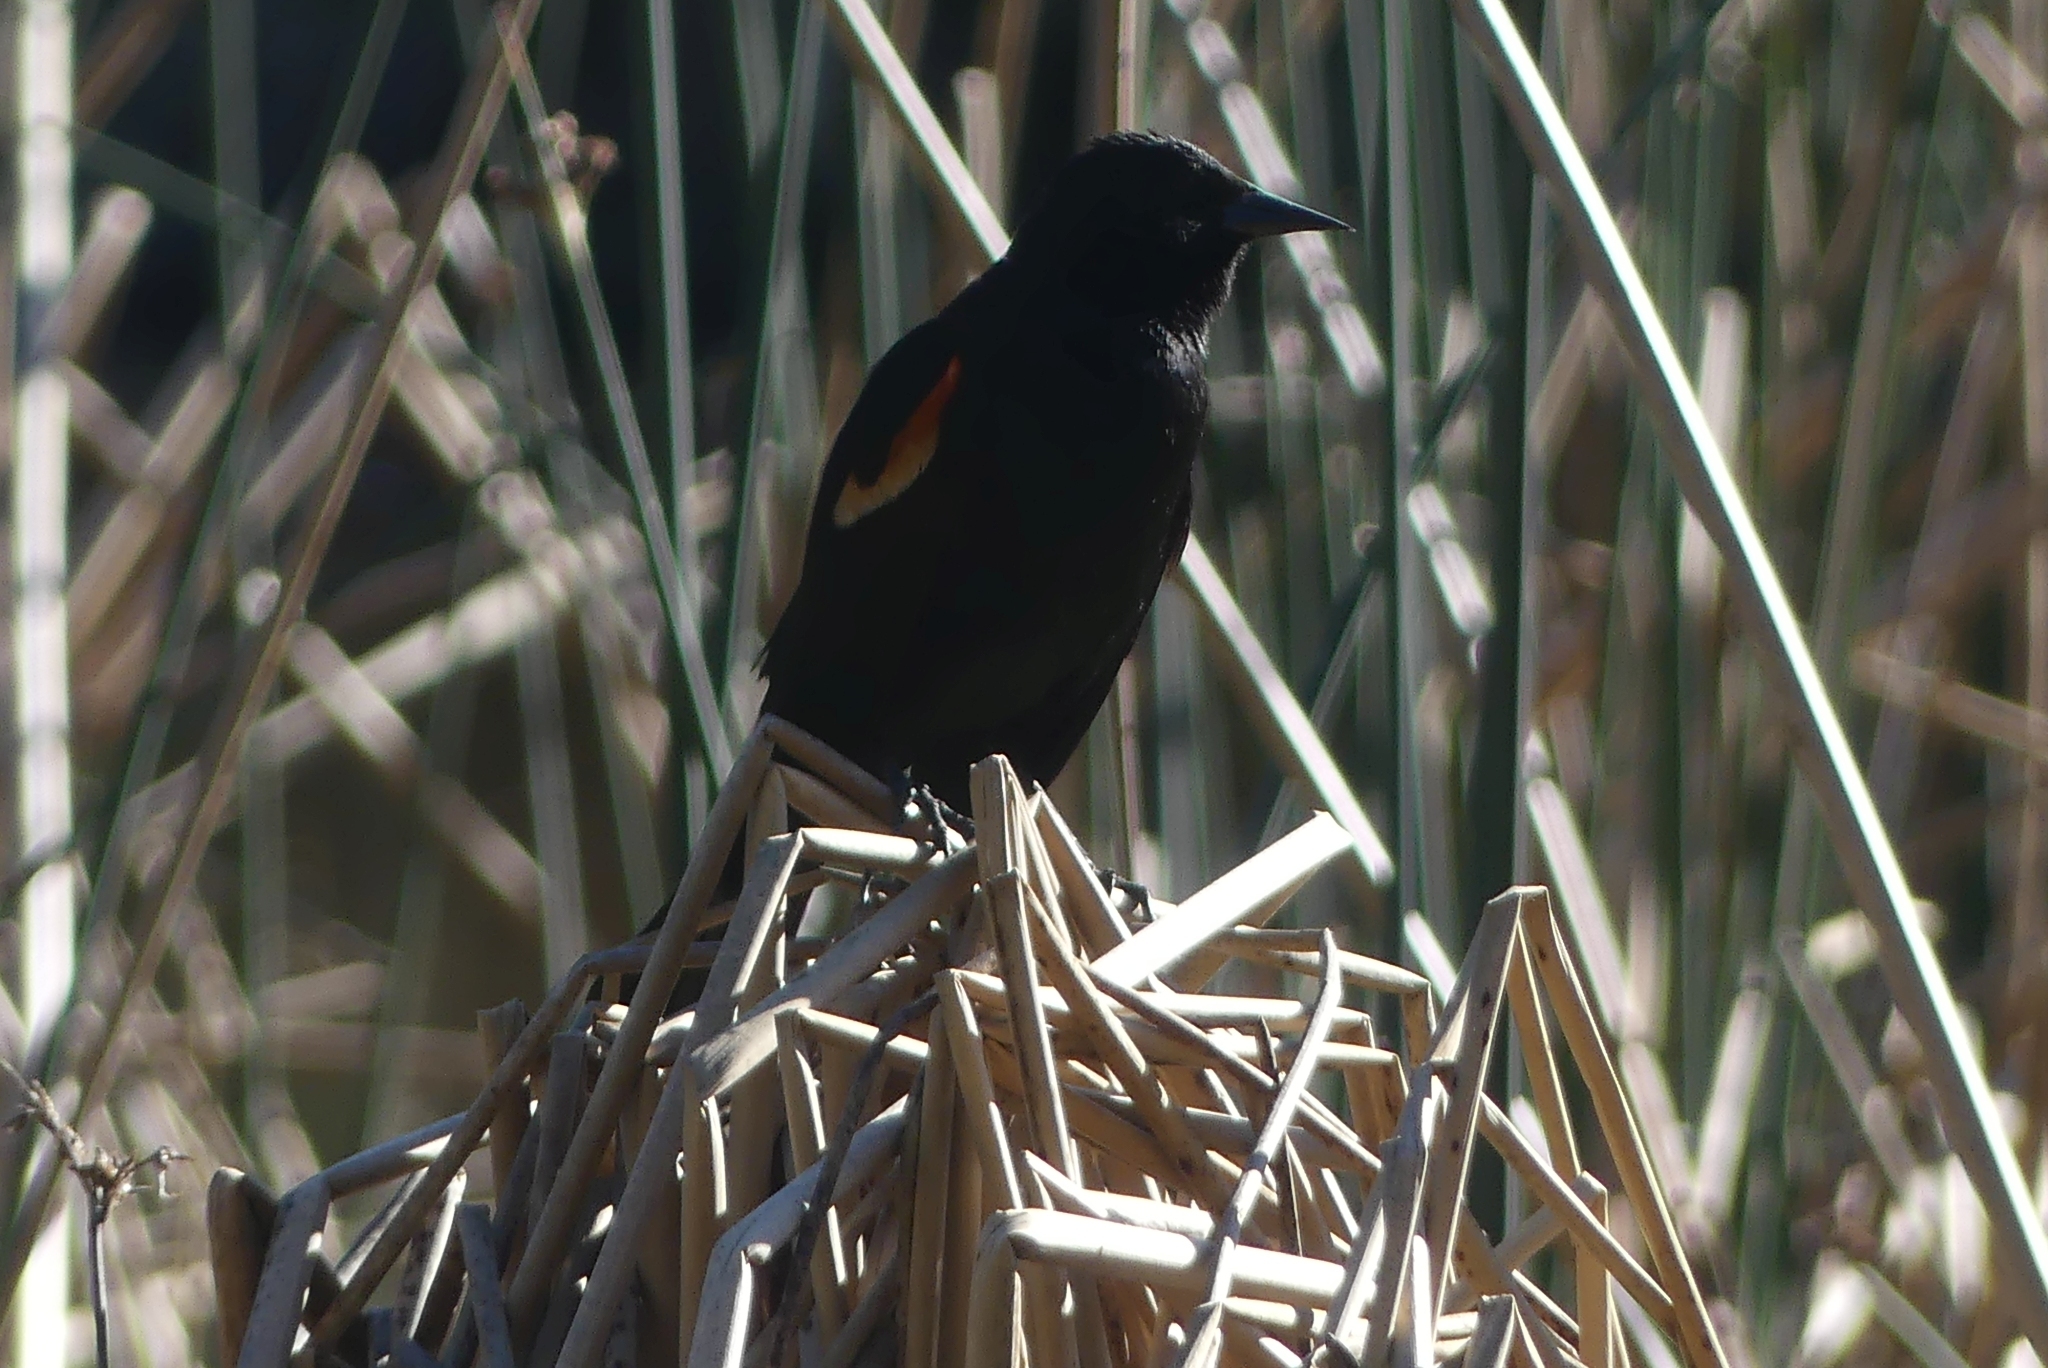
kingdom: Animalia
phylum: Chordata
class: Aves
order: Passeriformes
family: Icteridae
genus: Agelaius
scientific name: Agelaius phoeniceus
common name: Red-winged blackbird
